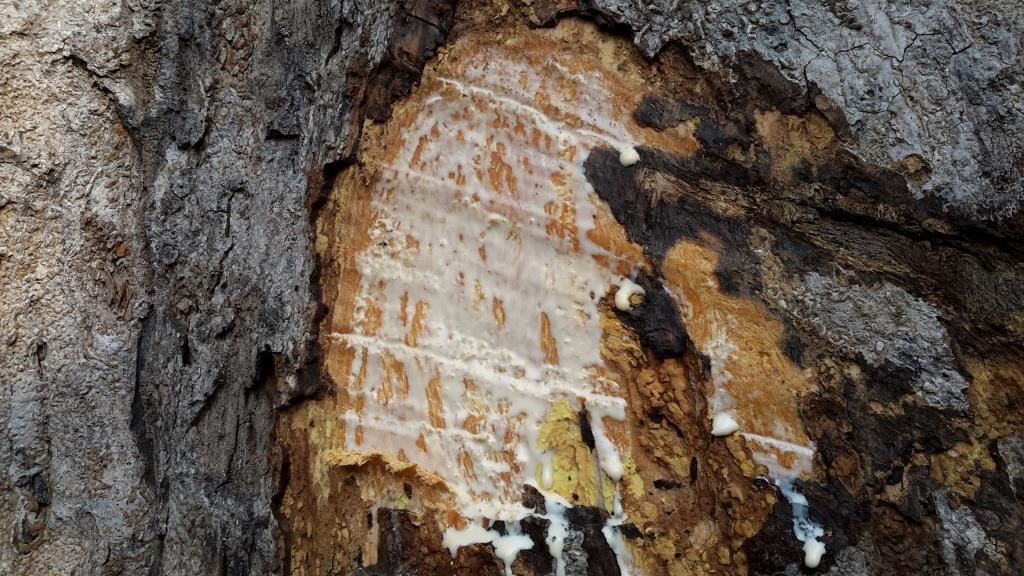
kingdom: Plantae
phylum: Tracheophyta
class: Magnoliopsida
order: Rosales
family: Moraceae
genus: Milicia
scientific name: Milicia excelsa
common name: African teak
